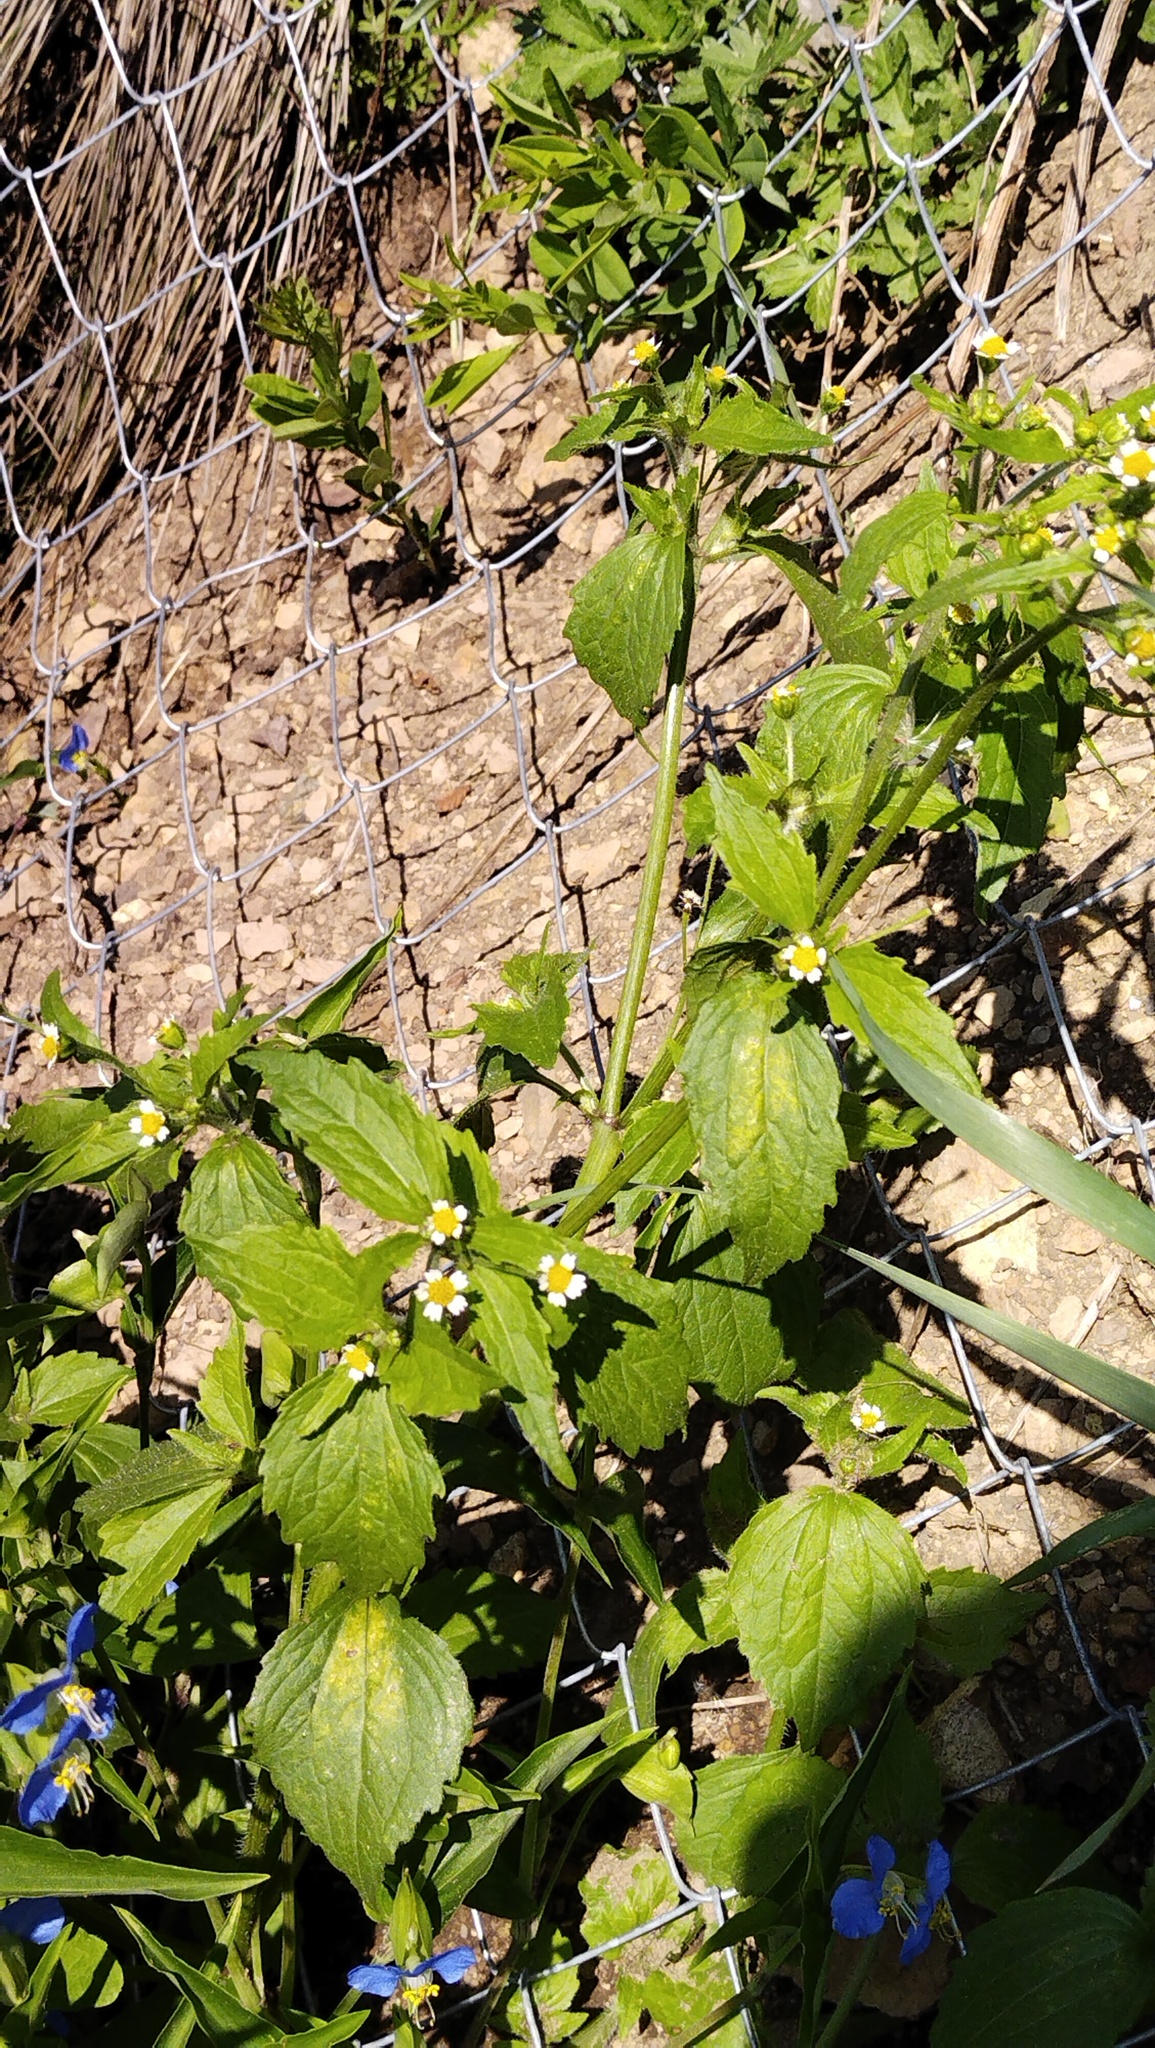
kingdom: Plantae
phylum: Tracheophyta
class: Magnoliopsida
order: Asterales
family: Asteraceae
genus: Galinsoga
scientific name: Galinsoga quadriradiata
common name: Shaggy soldier
